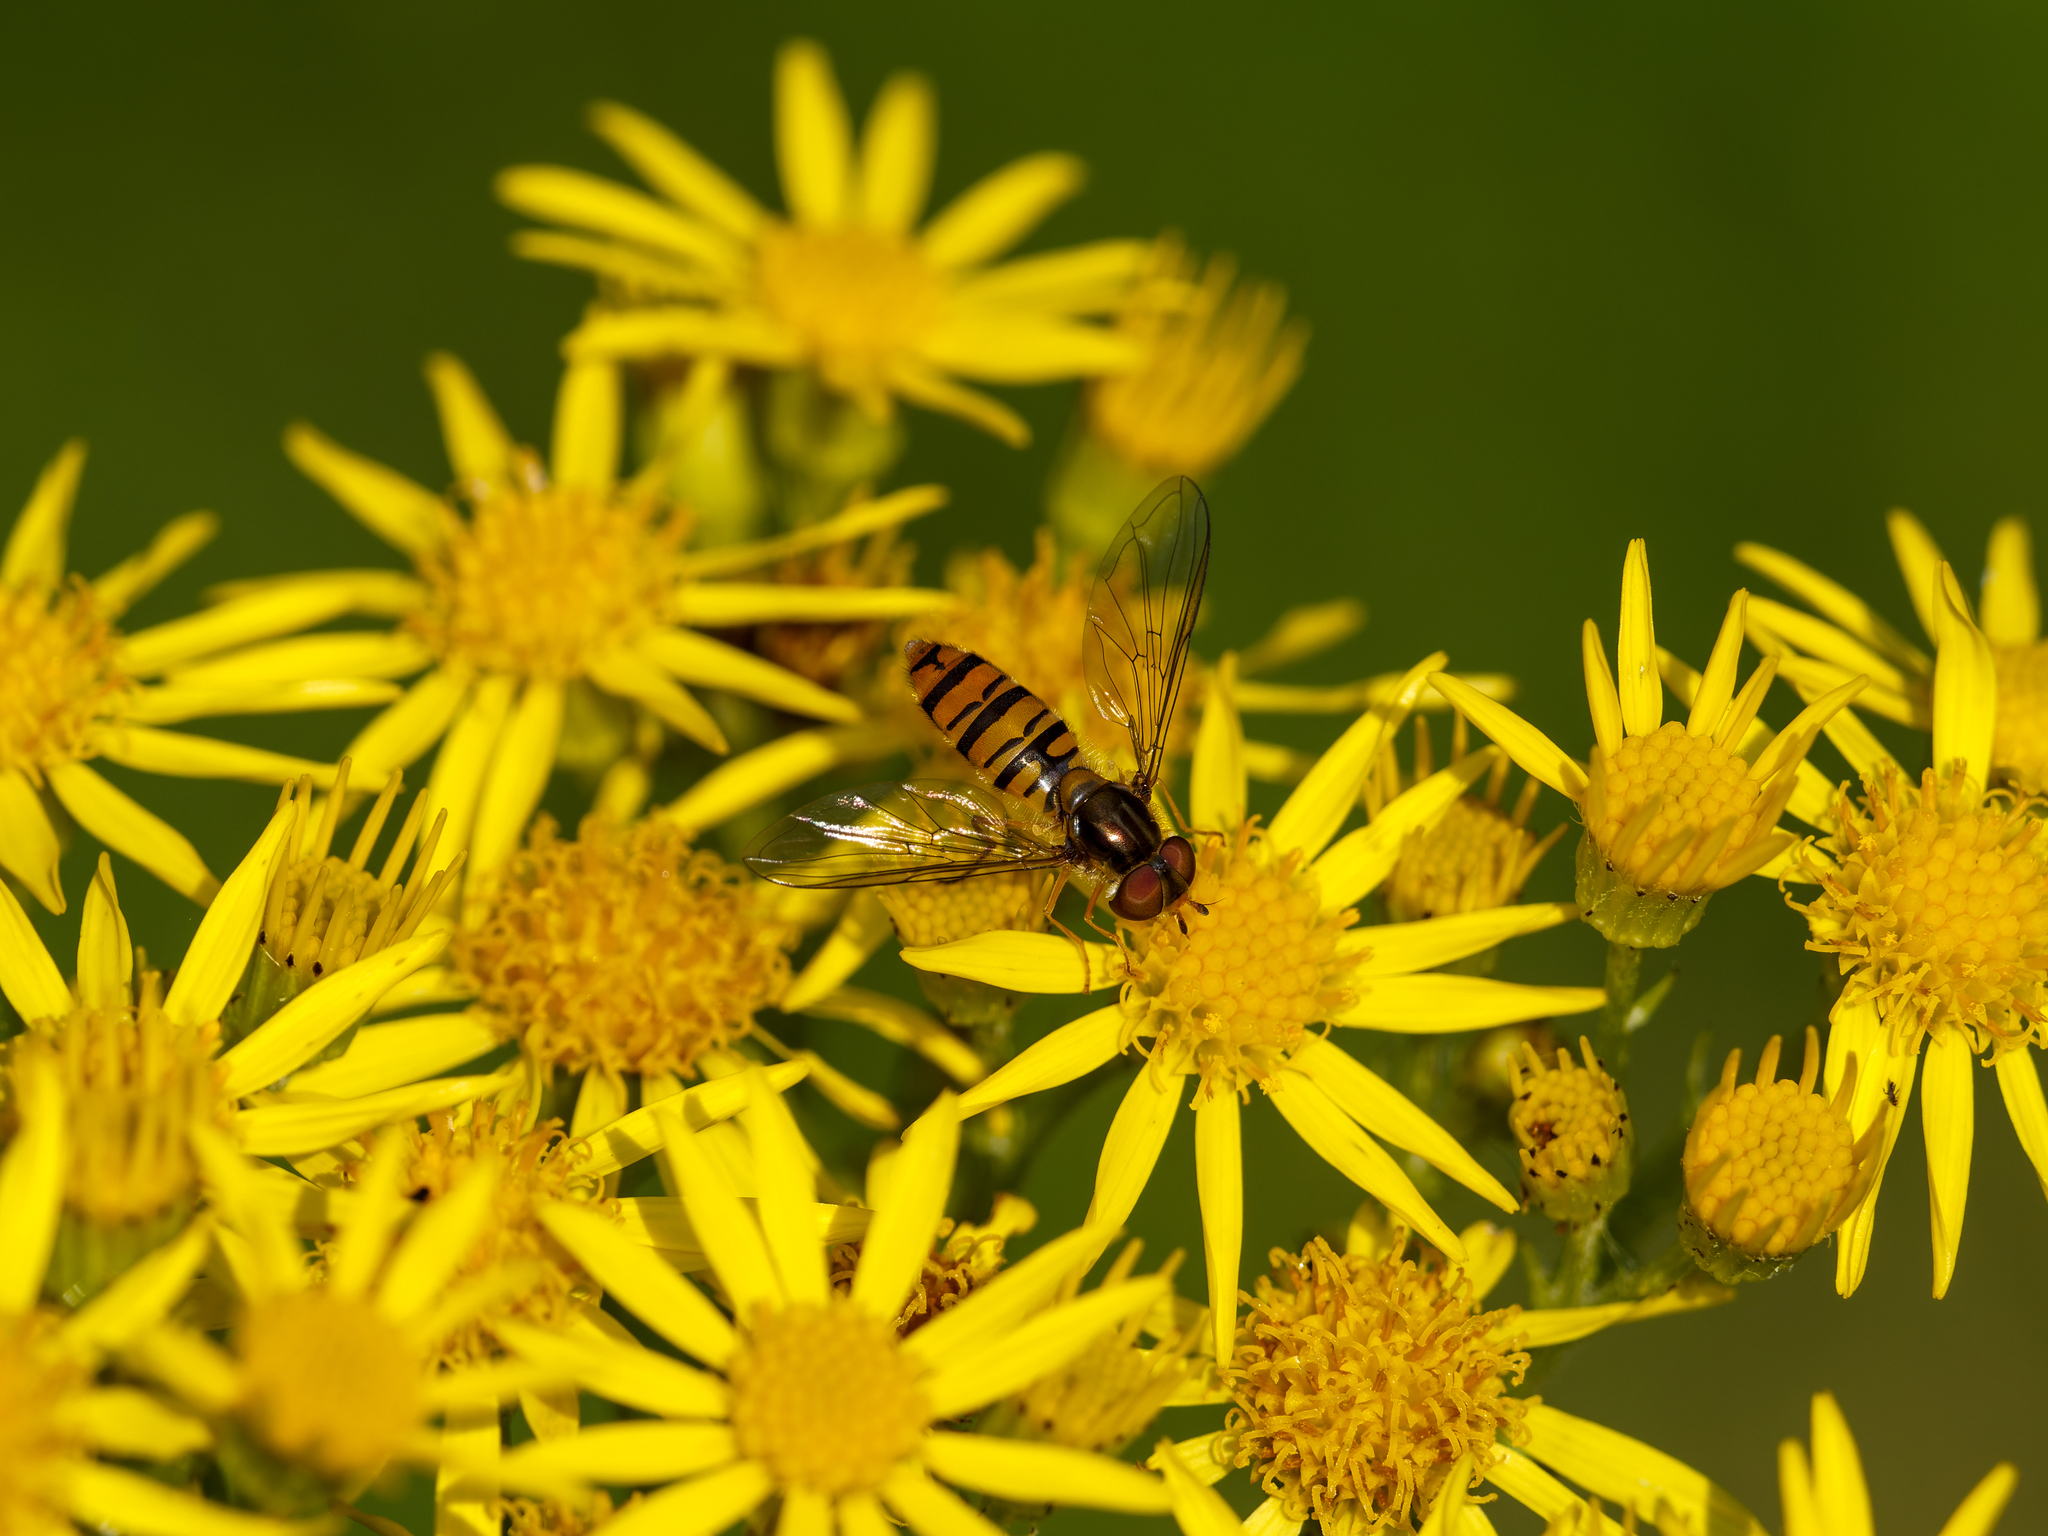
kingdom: Plantae
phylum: Tracheophyta
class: Magnoliopsida
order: Asterales
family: Asteraceae
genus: Jacobaea
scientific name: Jacobaea vulgaris
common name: Stinking willie
